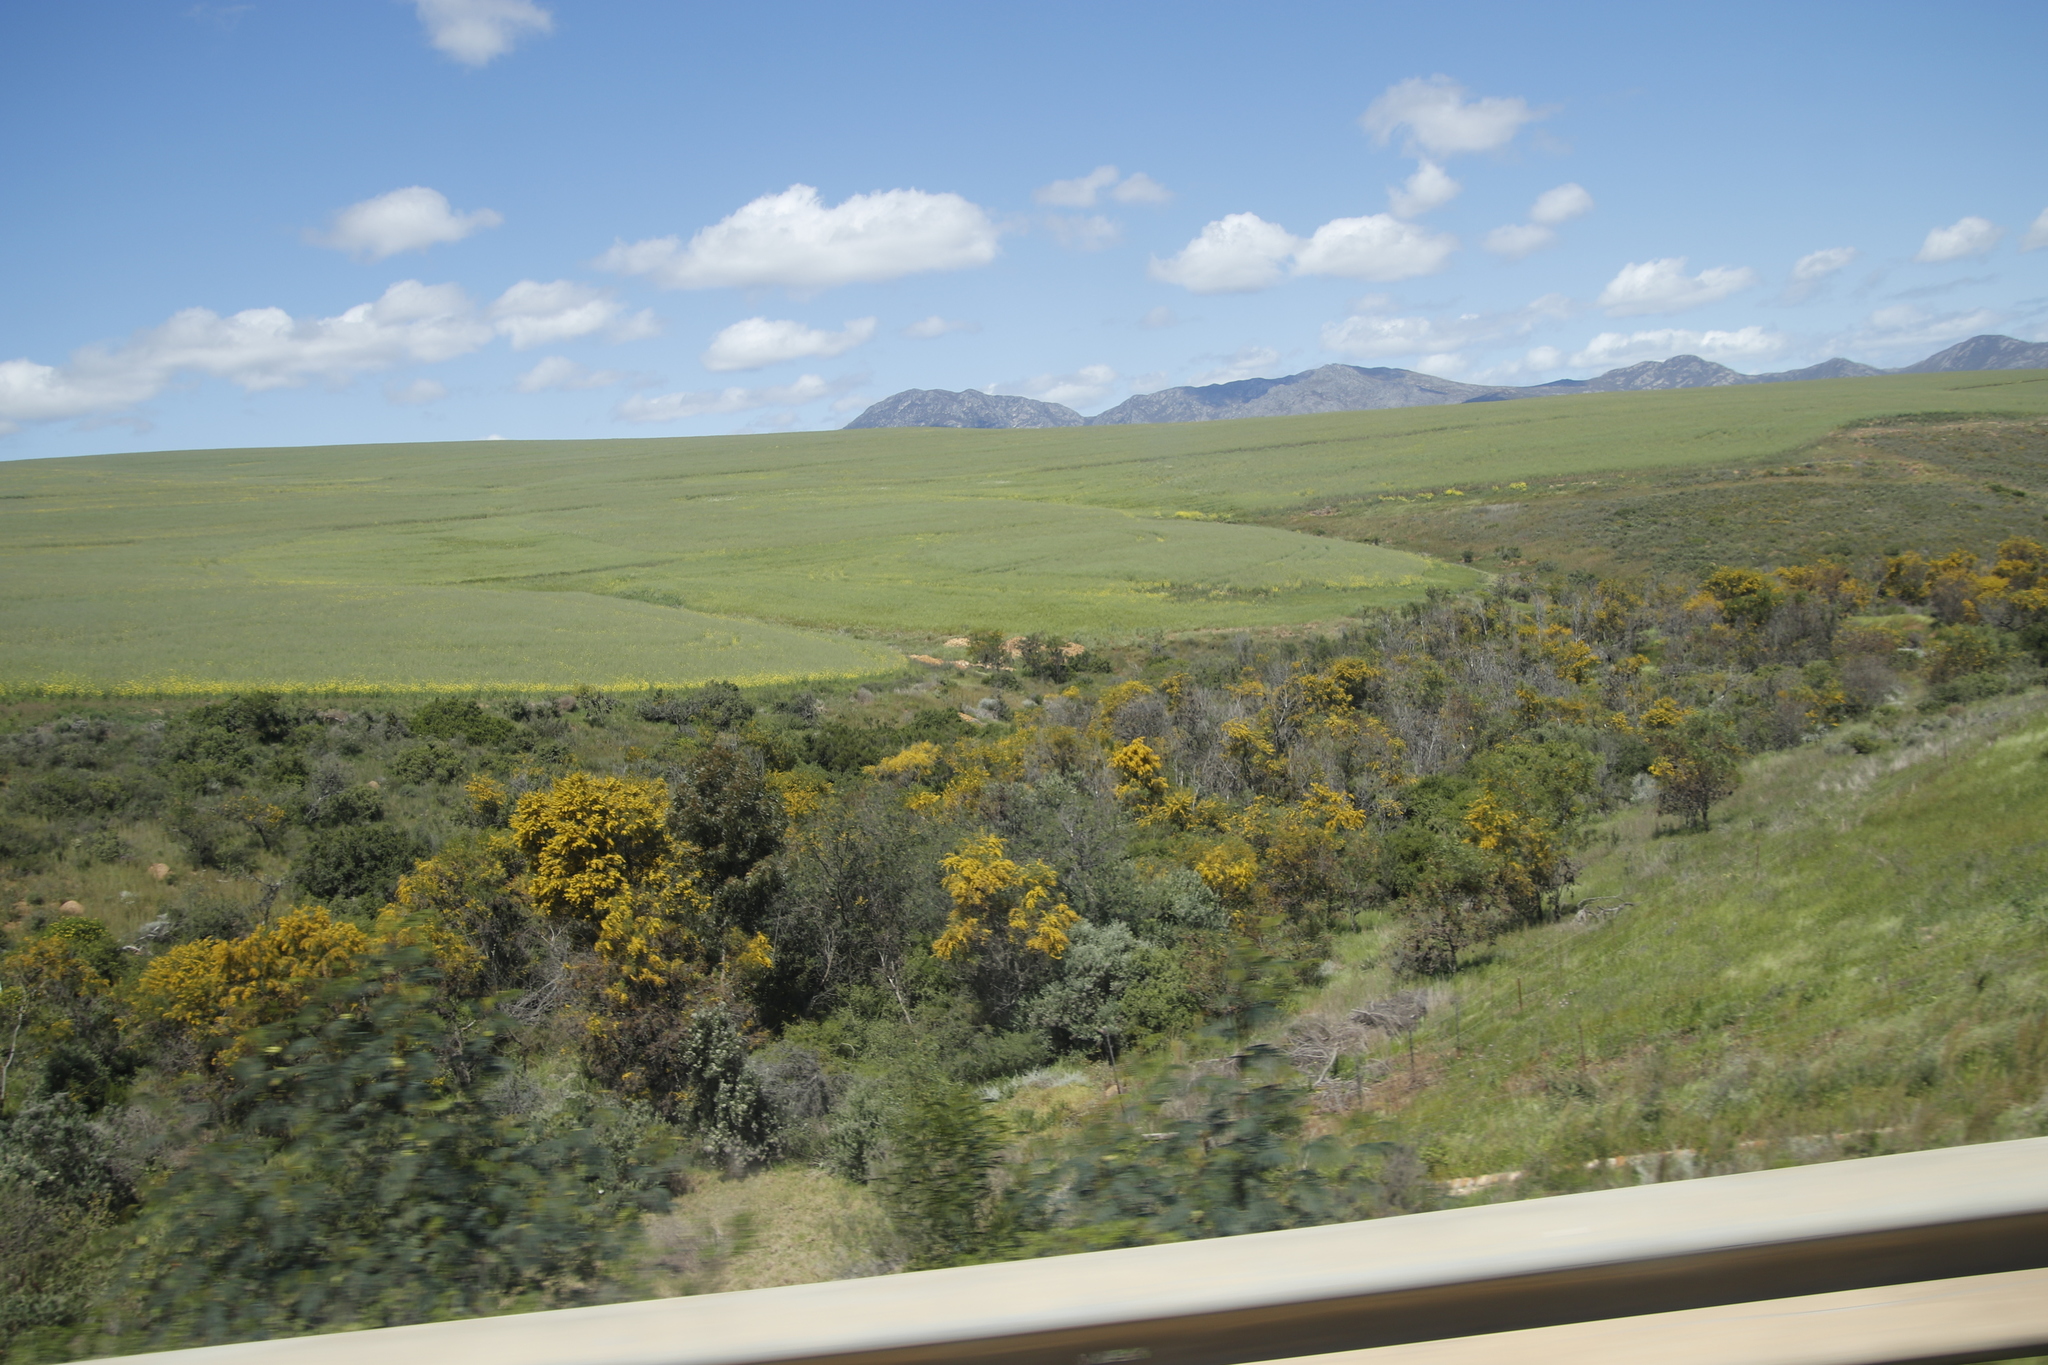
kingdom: Plantae
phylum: Tracheophyta
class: Magnoliopsida
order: Fabales
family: Fabaceae
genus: Acacia
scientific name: Acacia saligna
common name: Orange wattle
